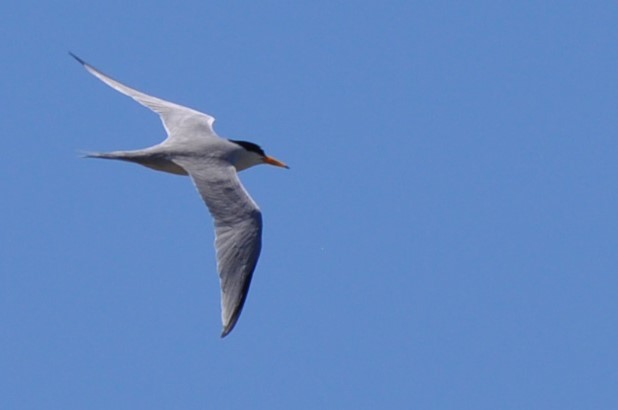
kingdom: Animalia
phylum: Chordata
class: Aves
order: Charadriiformes
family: Laridae
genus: Sternula
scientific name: Sternula antillarum
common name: Least tern
